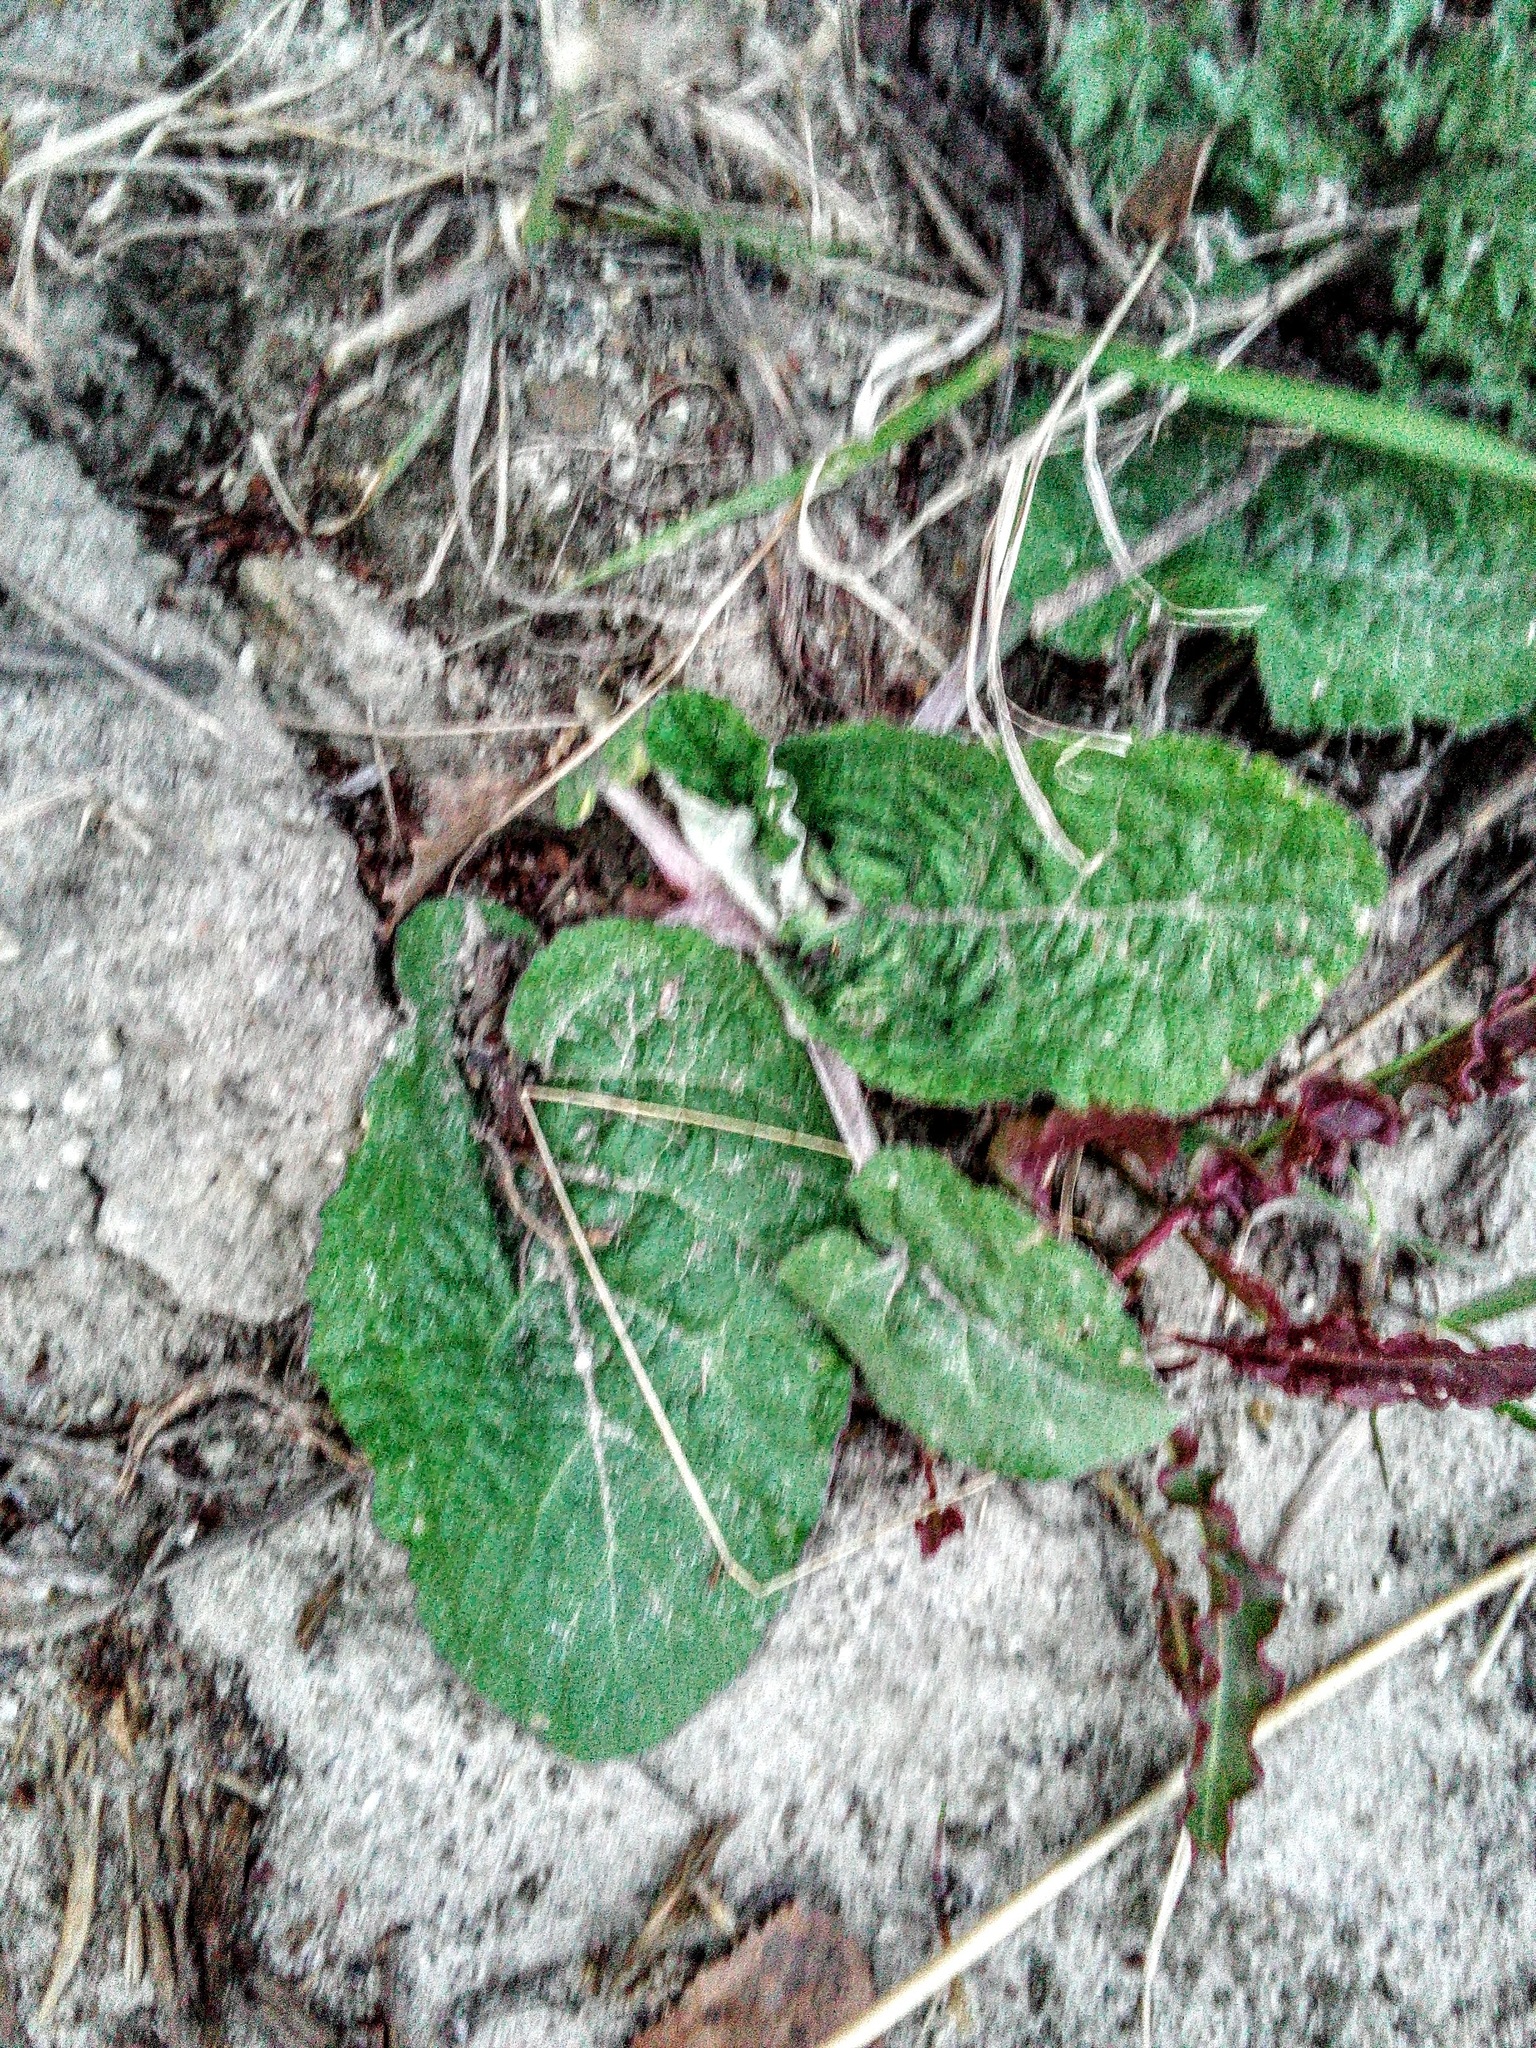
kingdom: Plantae
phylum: Tracheophyta
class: Magnoliopsida
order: Asterales
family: Asteraceae
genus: Arctium
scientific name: Arctium tomentosum
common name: Woolly burdock
